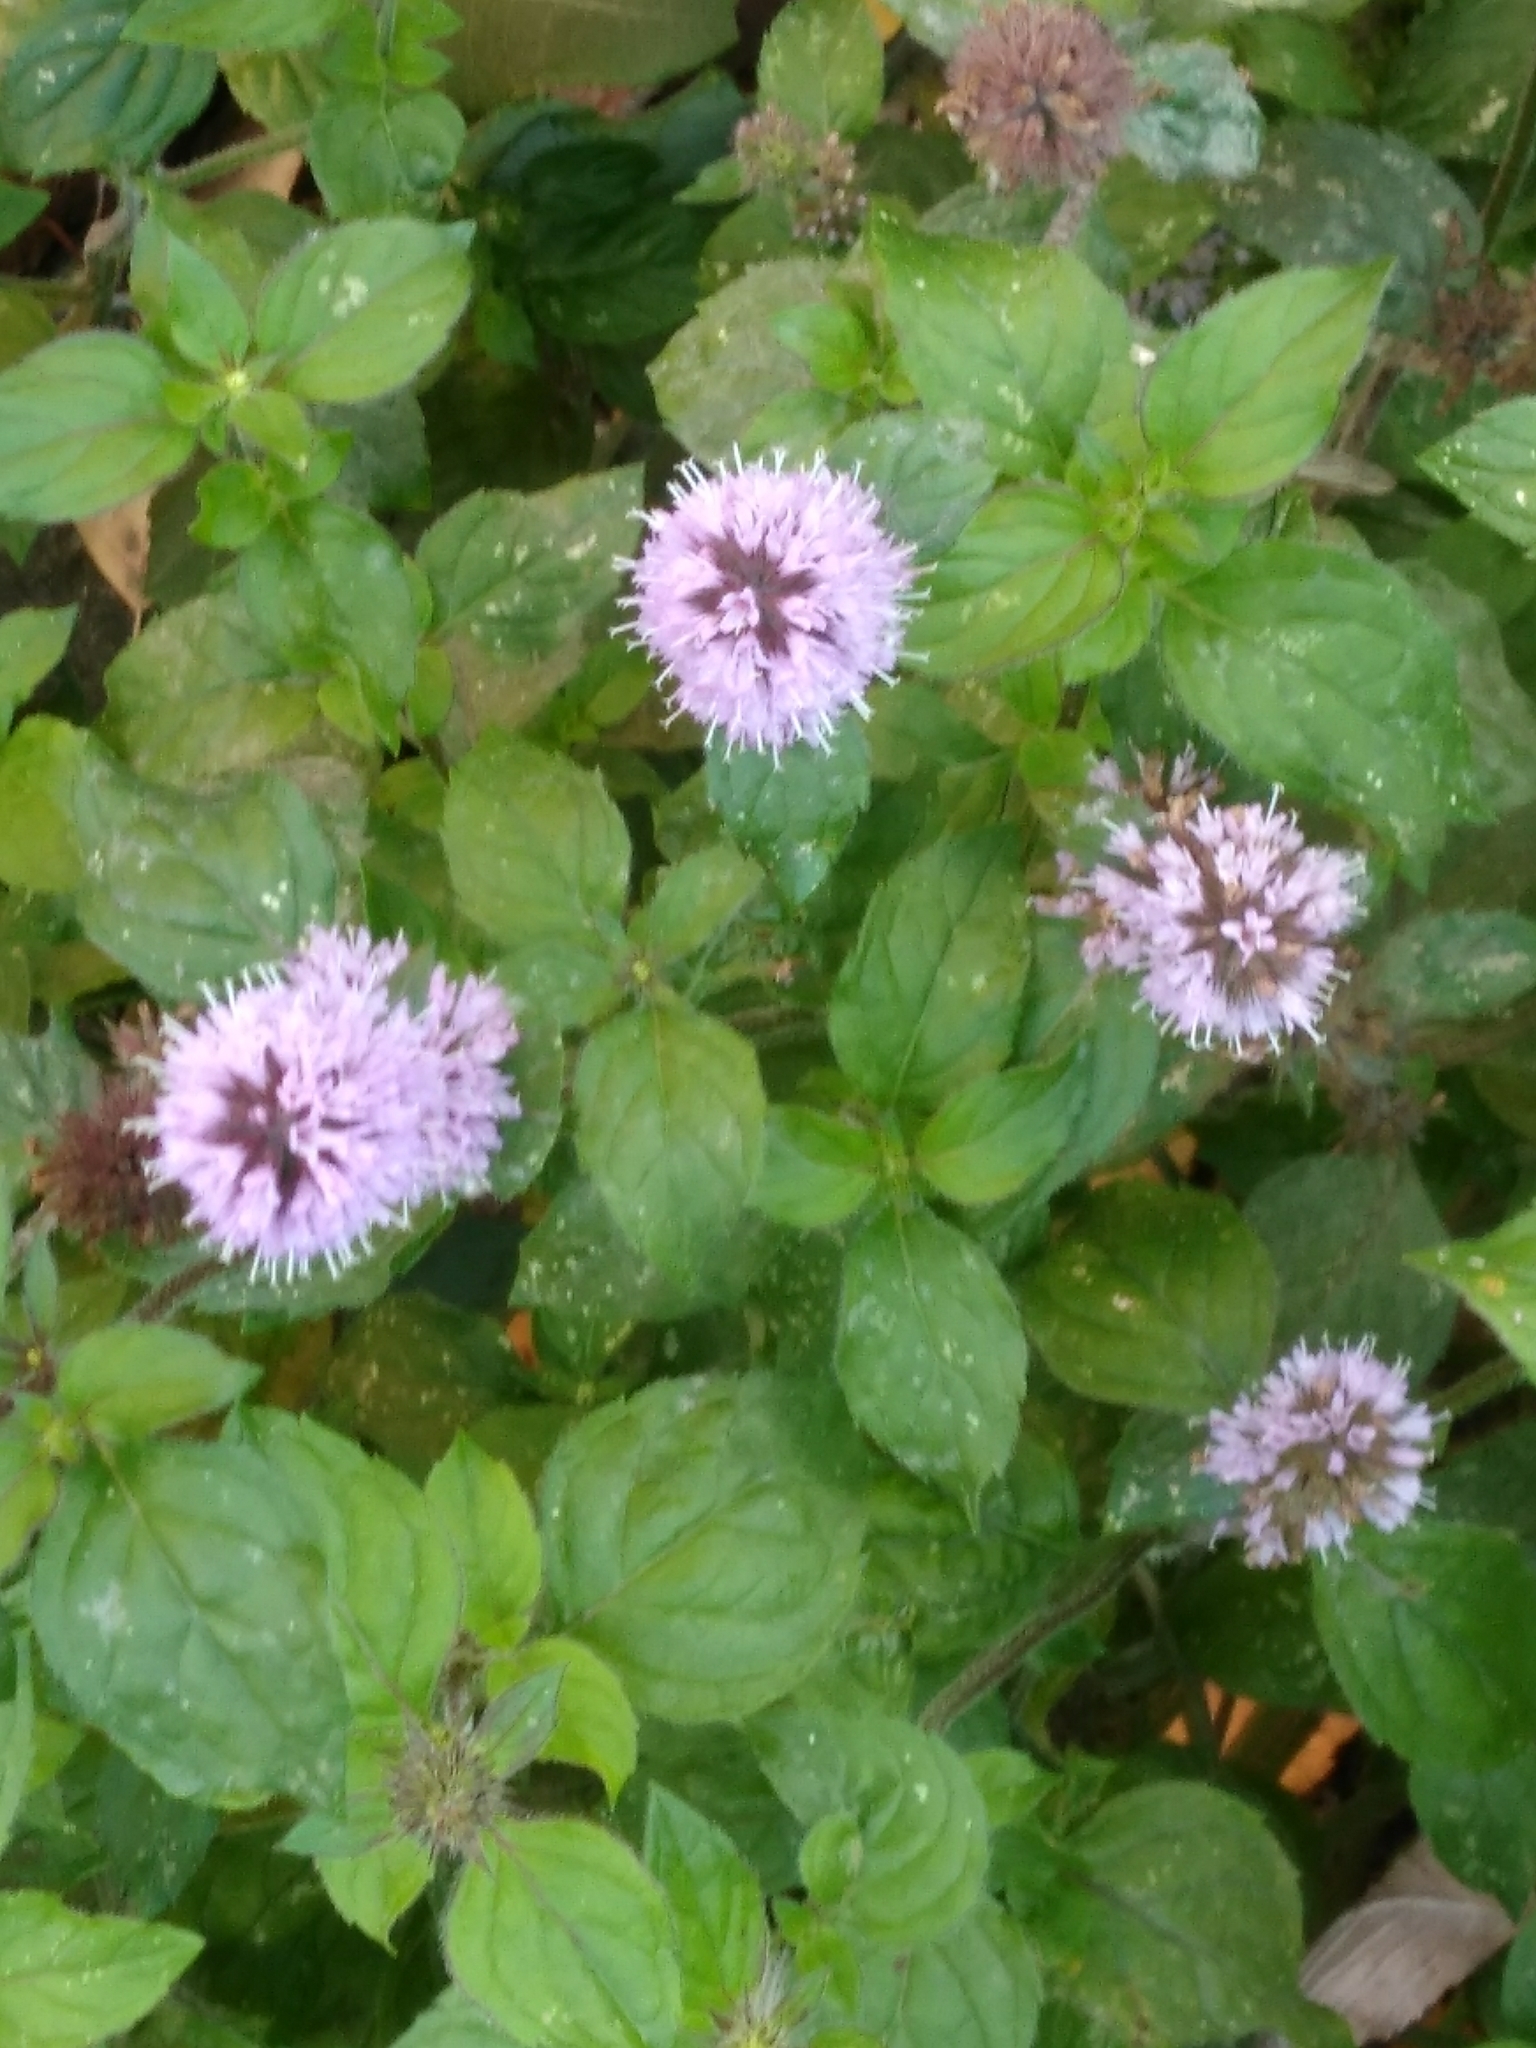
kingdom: Plantae
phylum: Tracheophyta
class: Magnoliopsida
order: Lamiales
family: Lamiaceae
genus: Mentha
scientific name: Mentha aquatica
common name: Water mint
